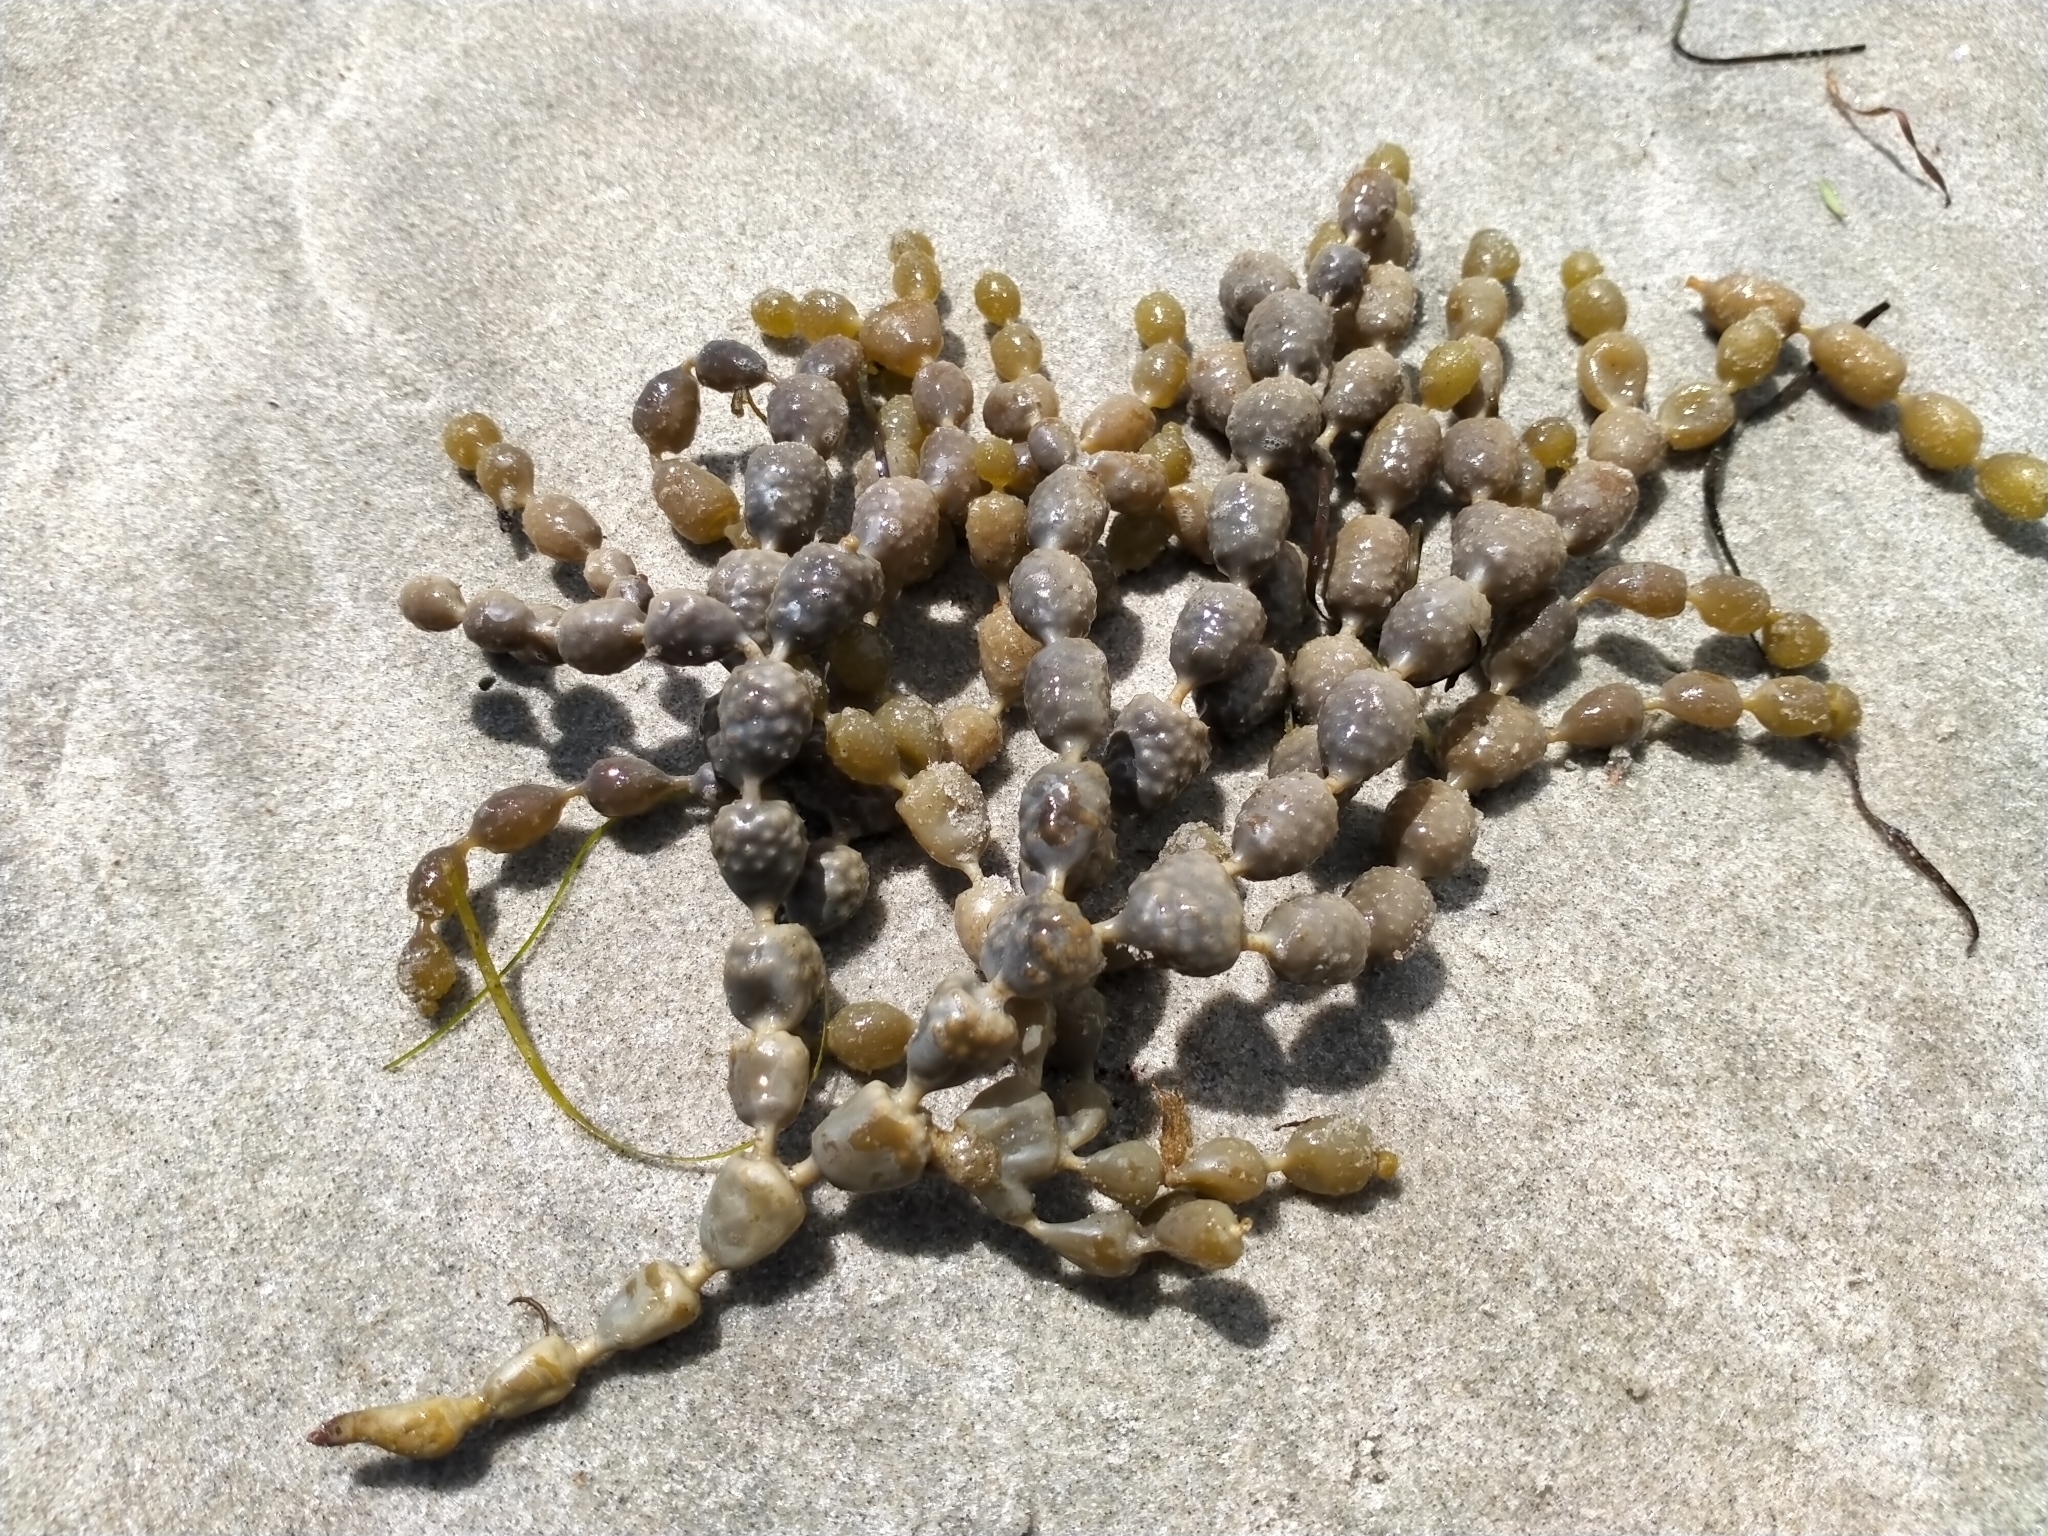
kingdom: Chromista
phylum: Ochrophyta
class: Phaeophyceae
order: Fucales
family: Hormosiraceae
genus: Hormosira
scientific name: Hormosira banksii
